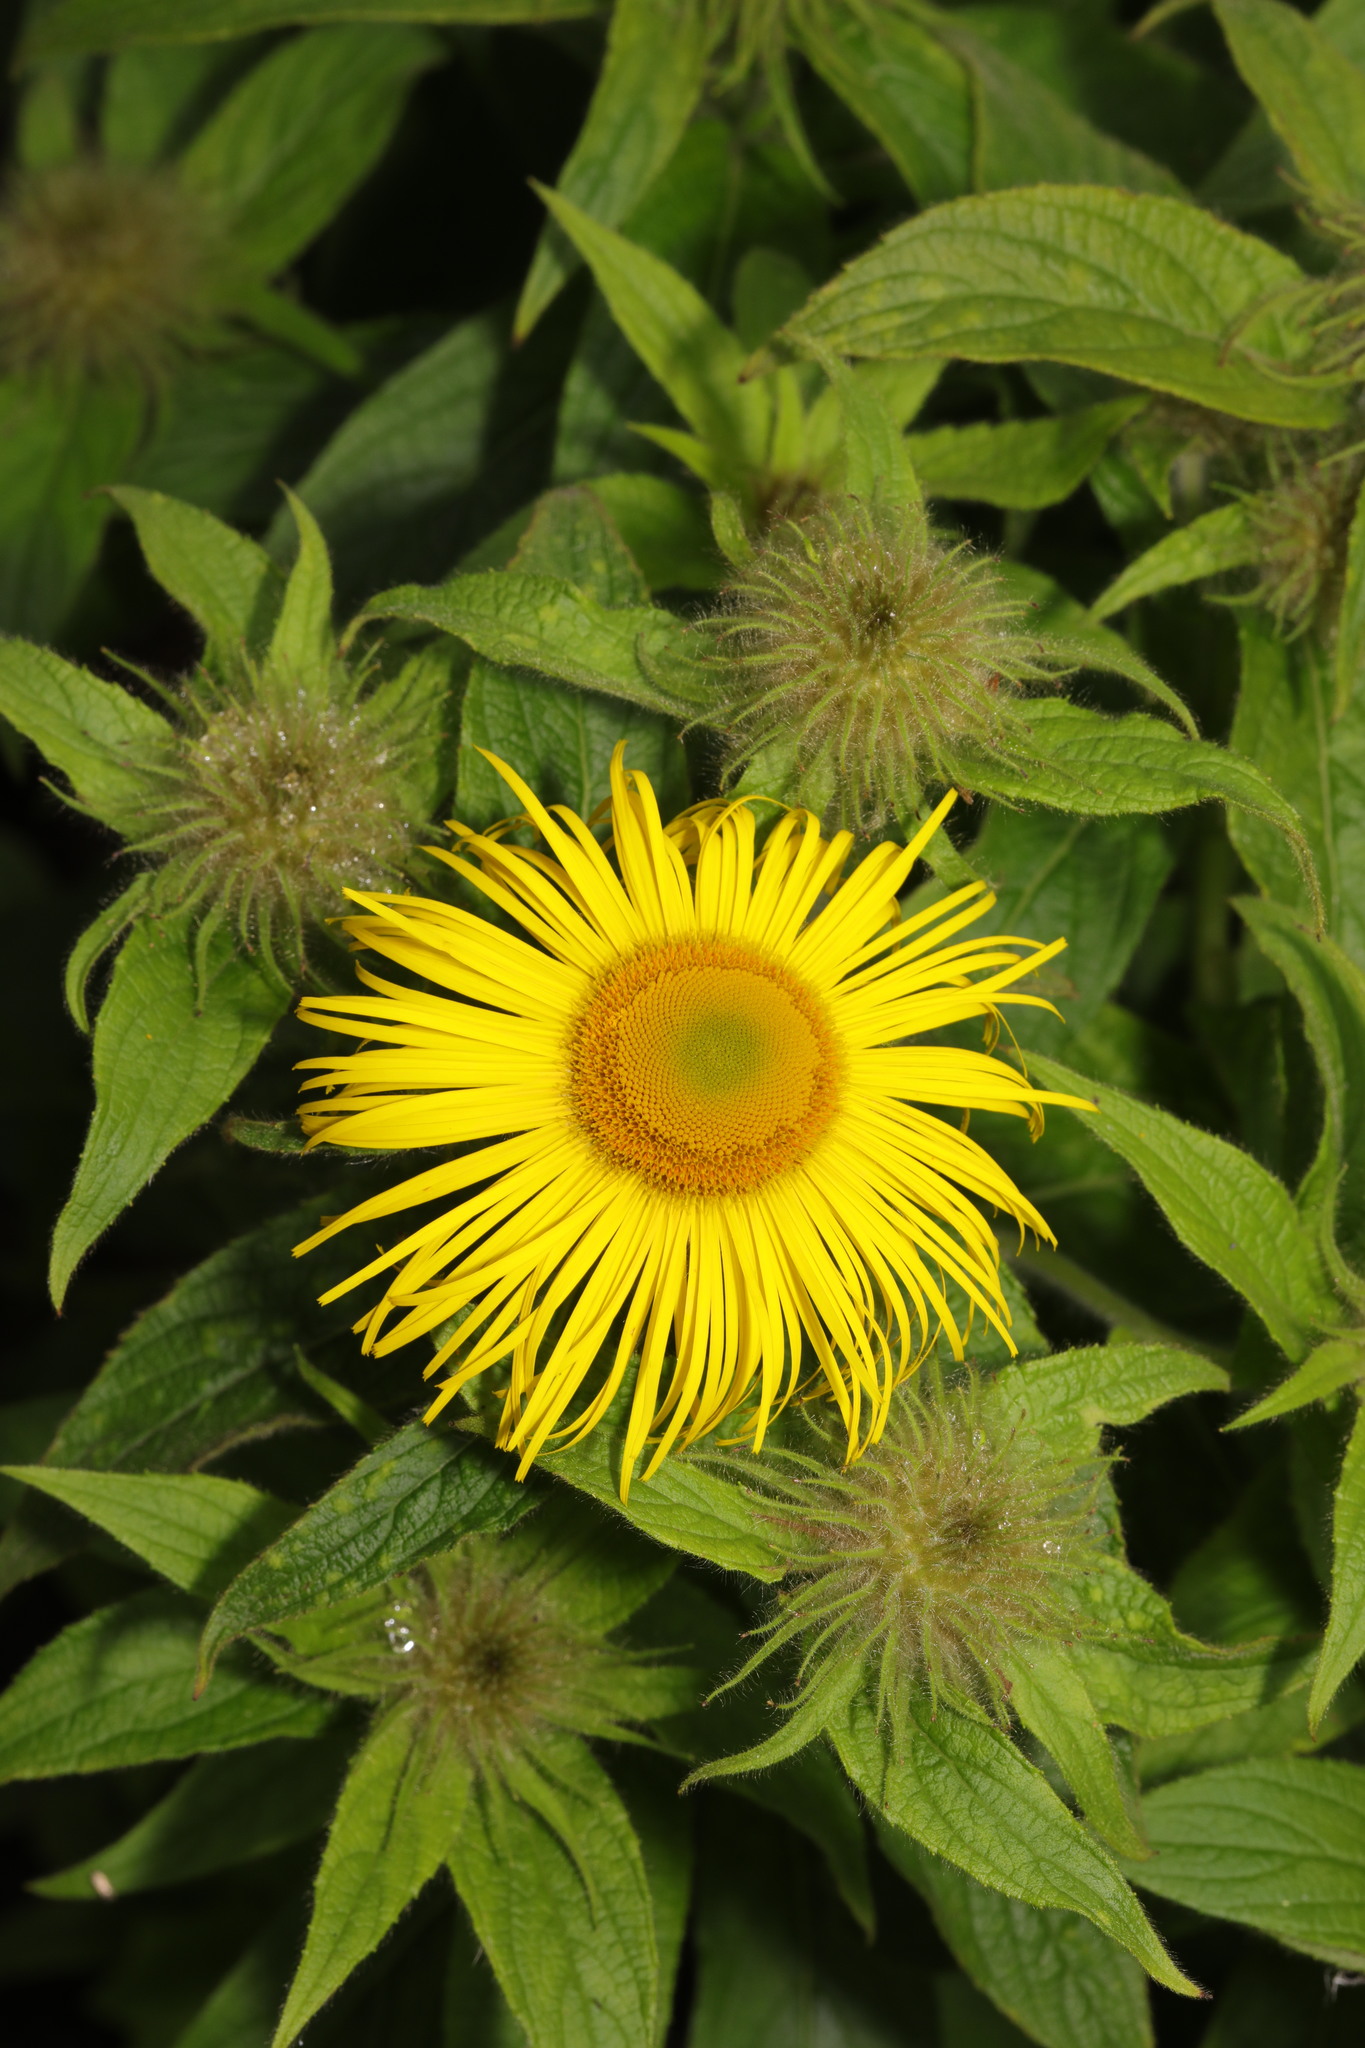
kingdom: Plantae
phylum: Tracheophyta
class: Magnoliopsida
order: Asterales
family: Asteraceae
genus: Inula
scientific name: Inula hookeri
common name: Hooker's-fleabane
